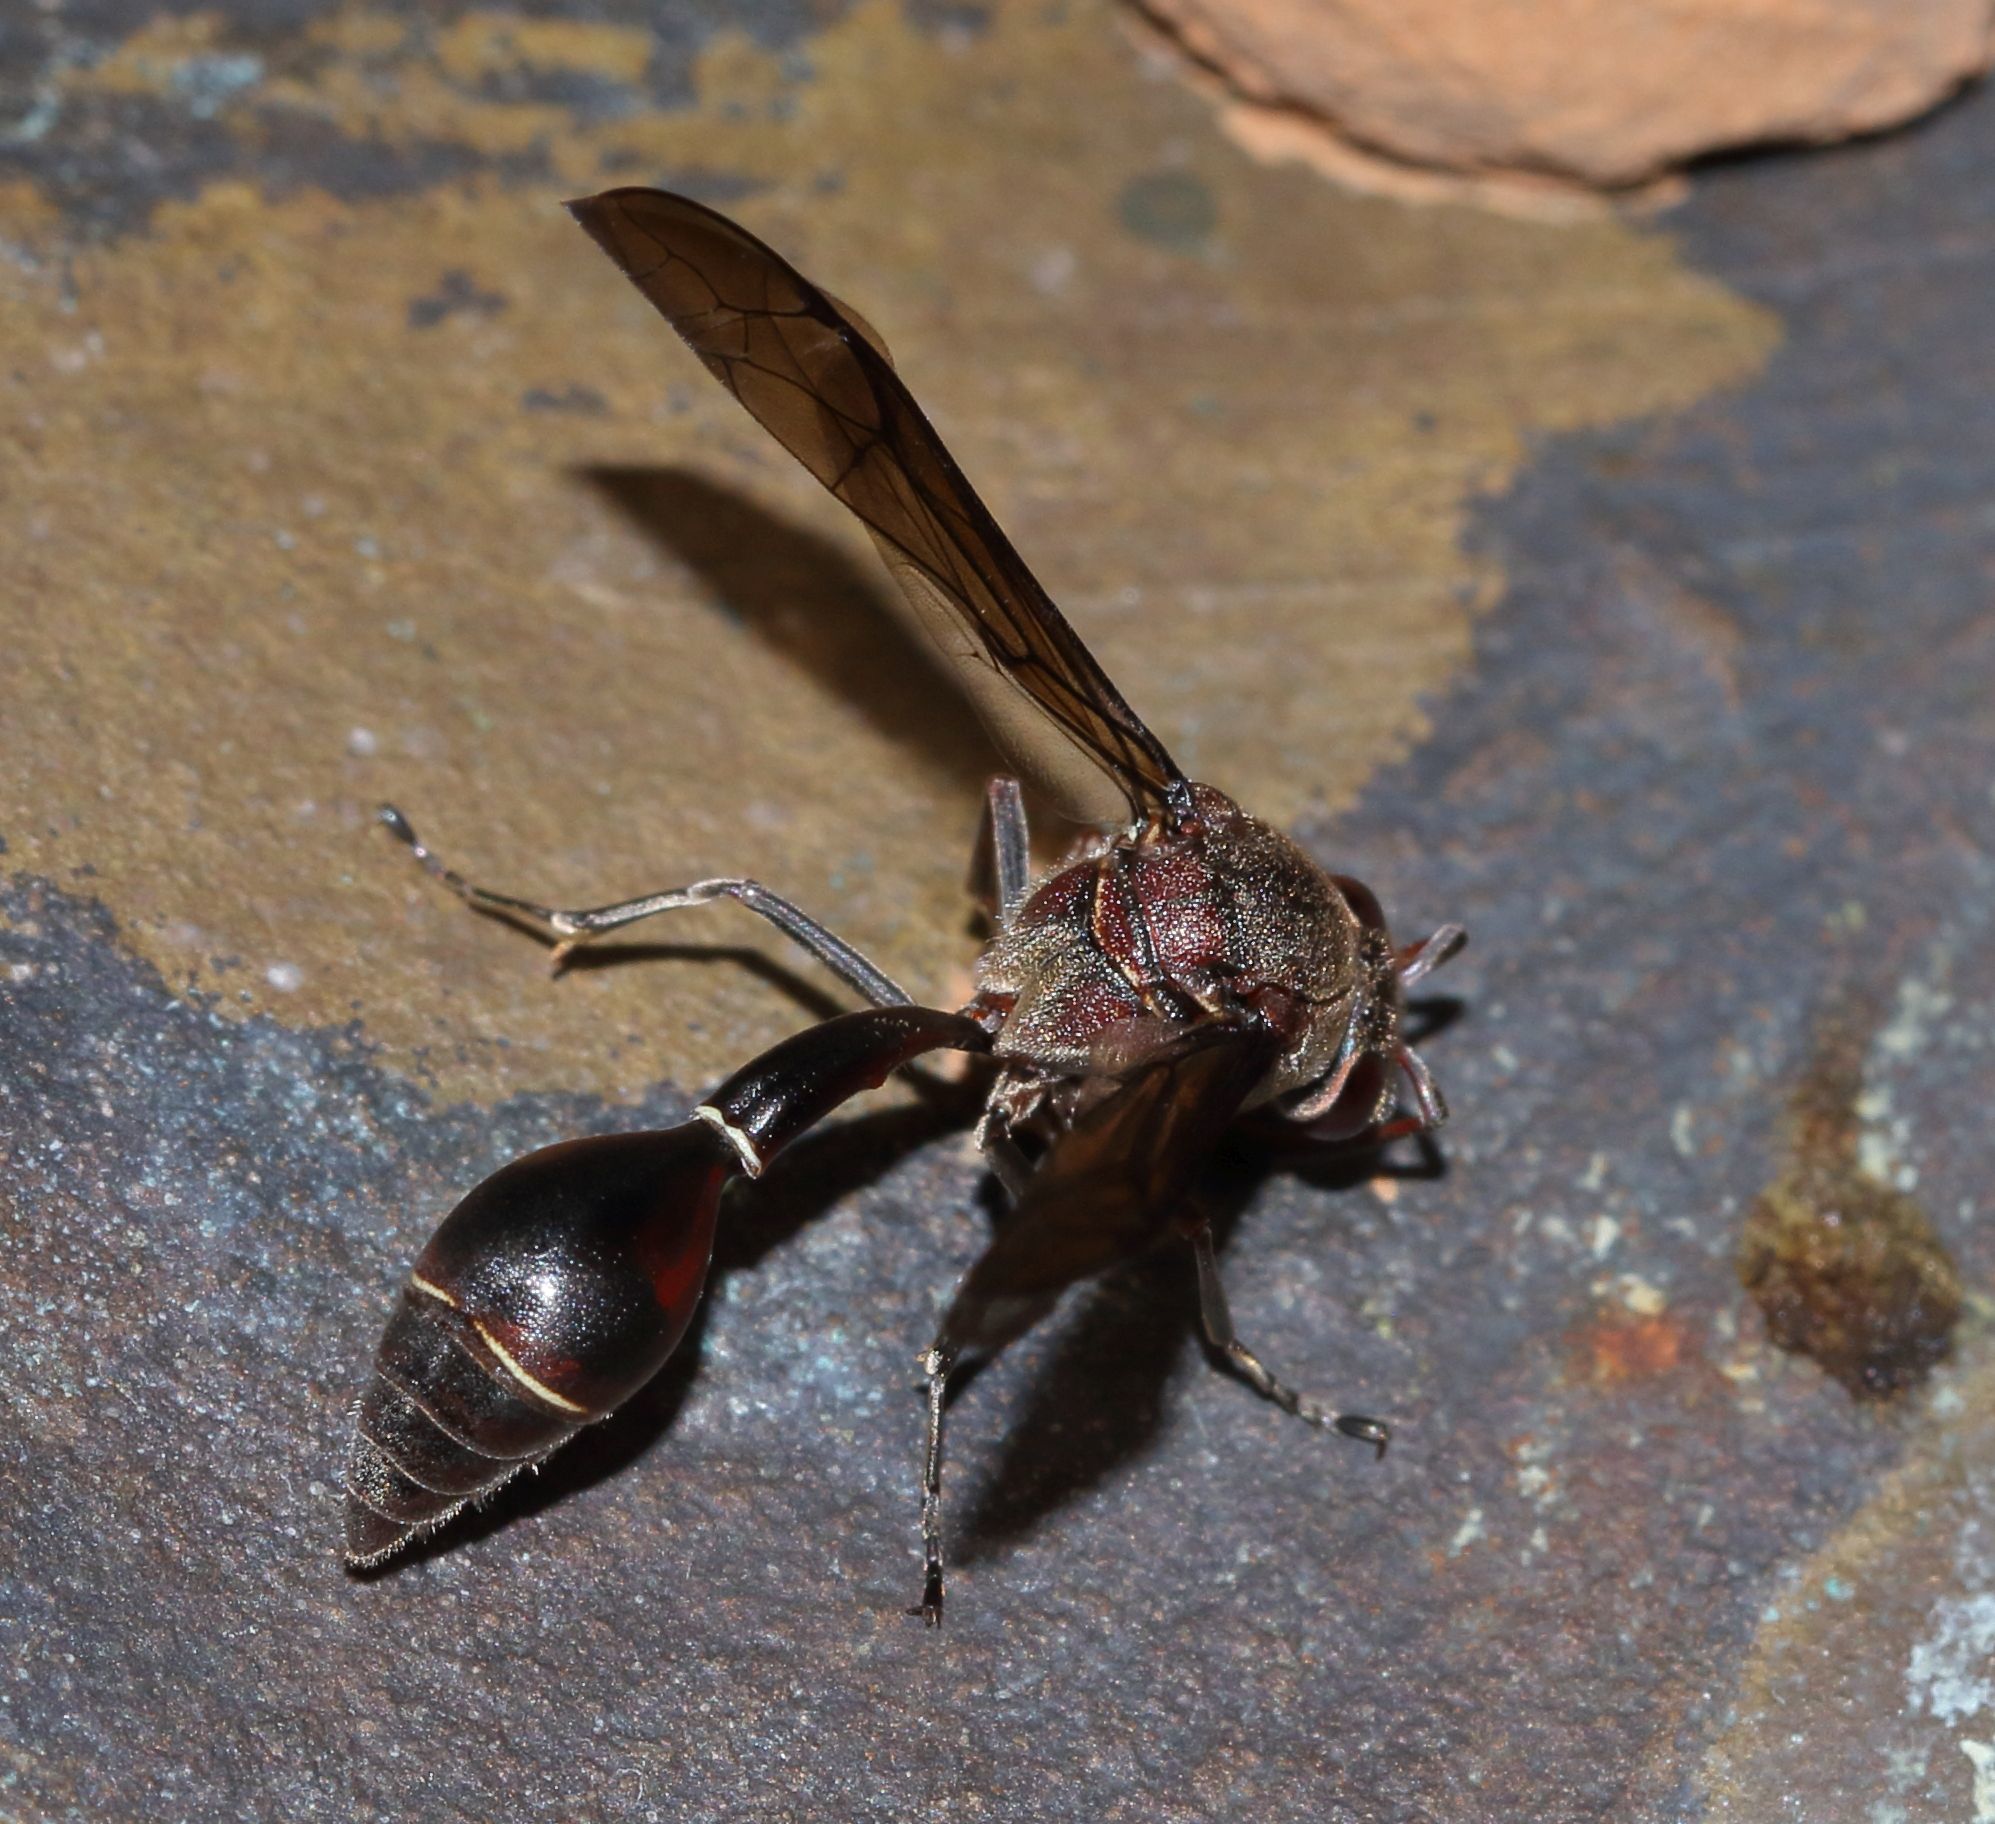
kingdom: Animalia
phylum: Arthropoda
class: Insecta
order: Hymenoptera
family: Eumenidae
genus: Afreumenes
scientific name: Afreumenes
